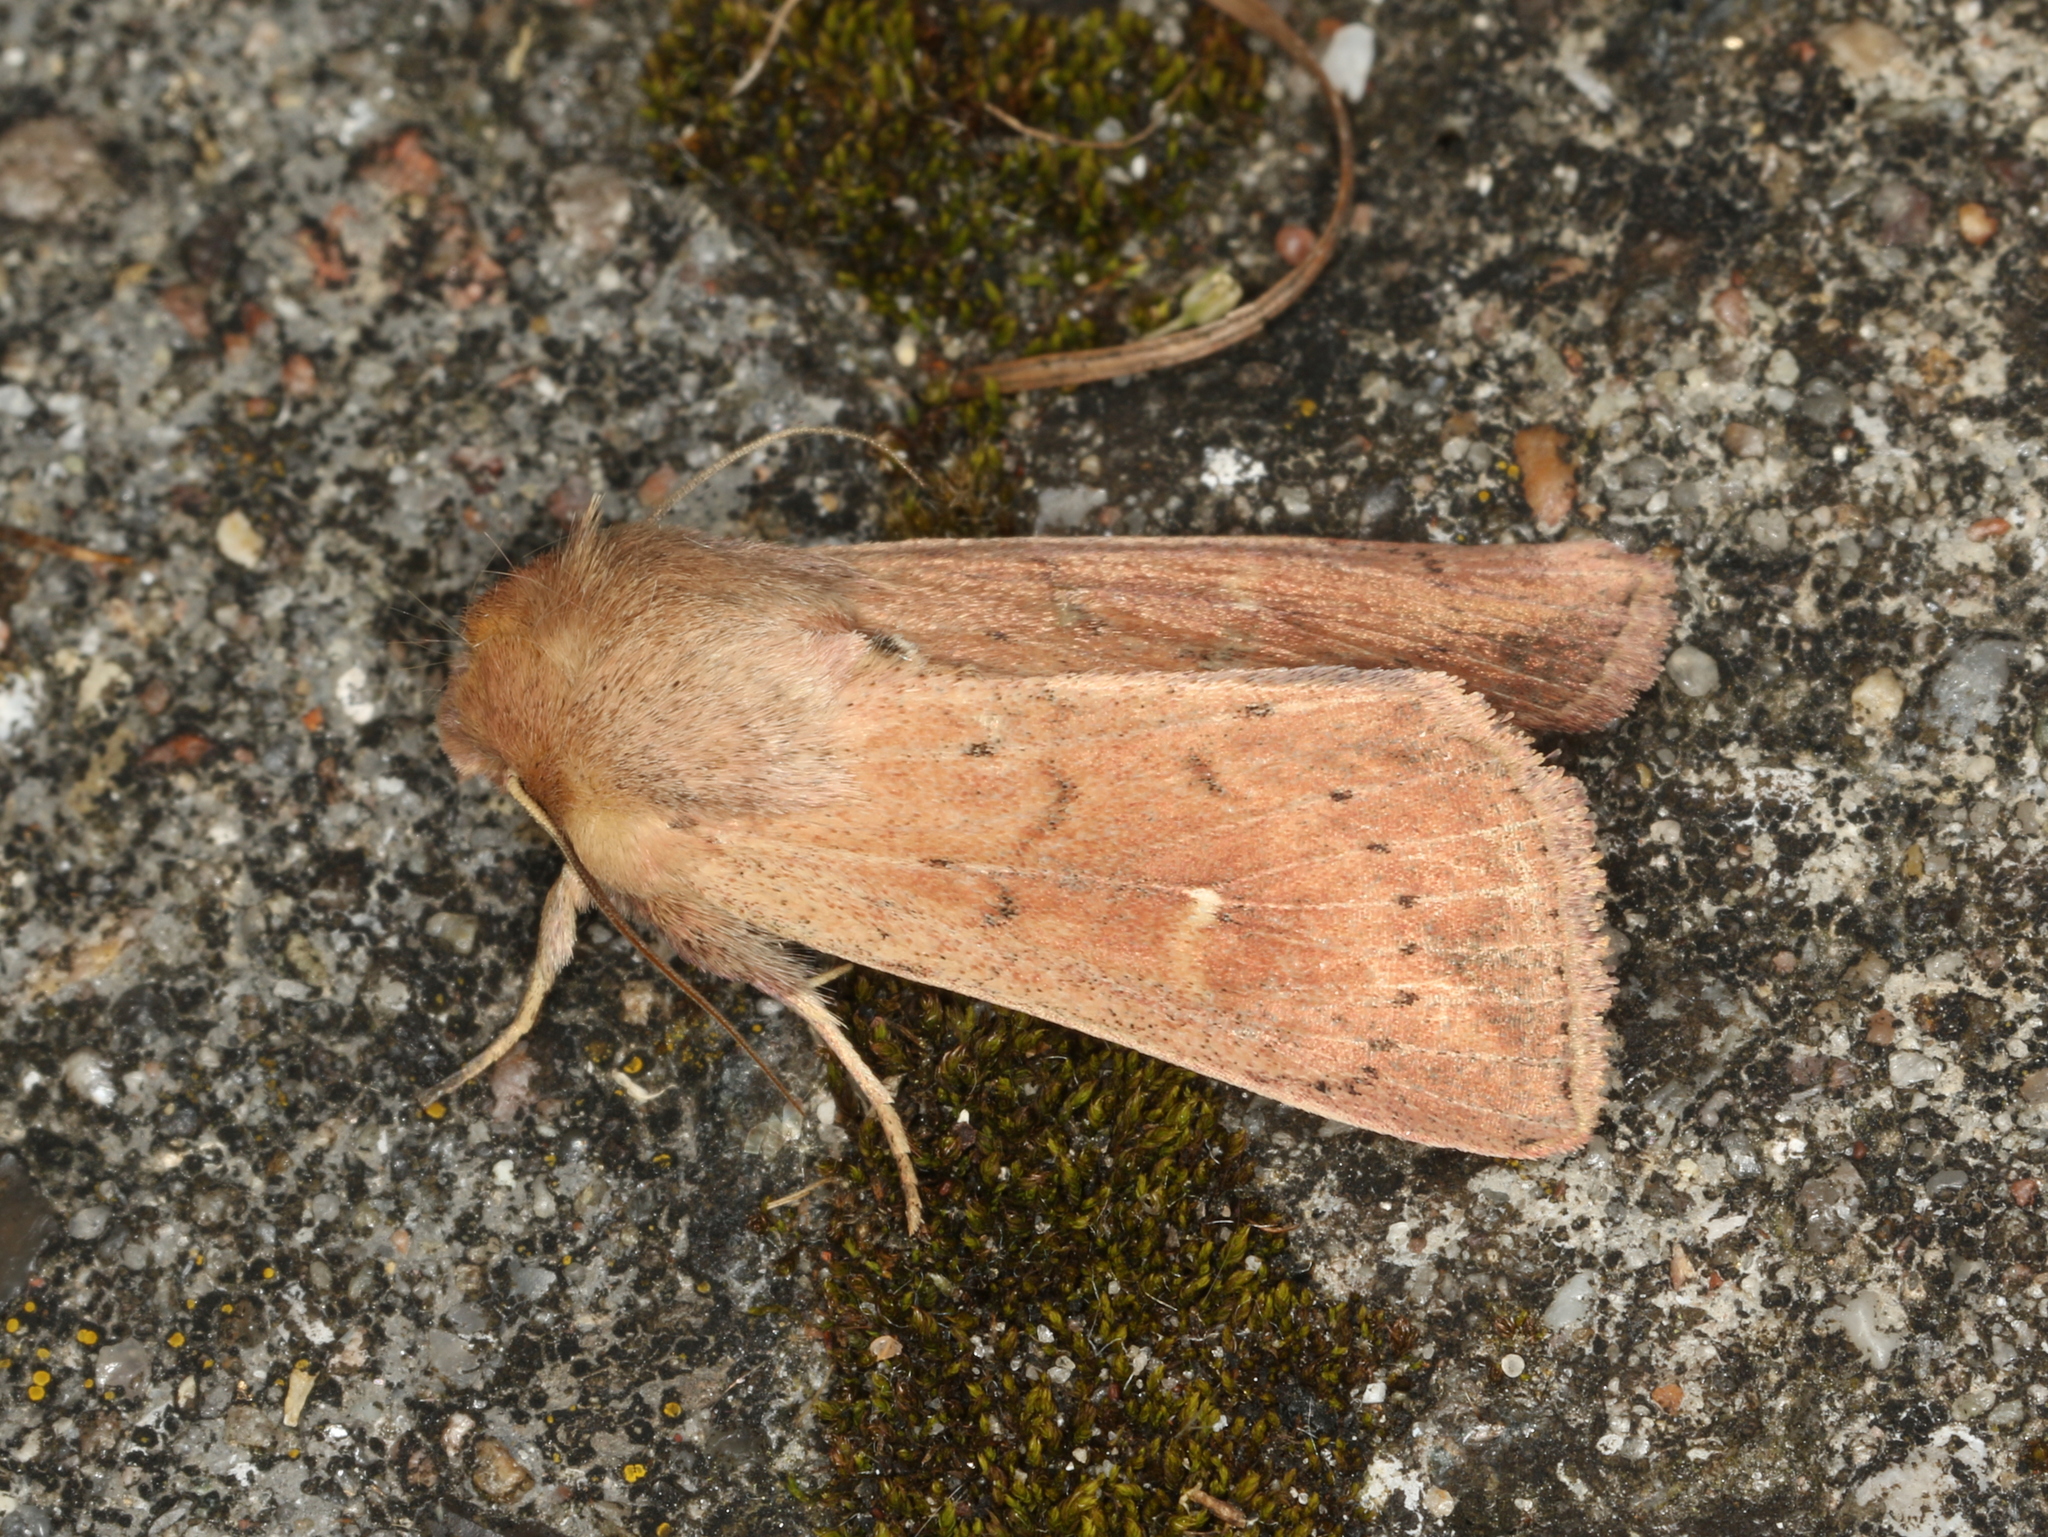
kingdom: Animalia
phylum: Arthropoda
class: Insecta
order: Lepidoptera
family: Noctuidae
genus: Mythimna
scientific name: Mythimna ferrago
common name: Clay
